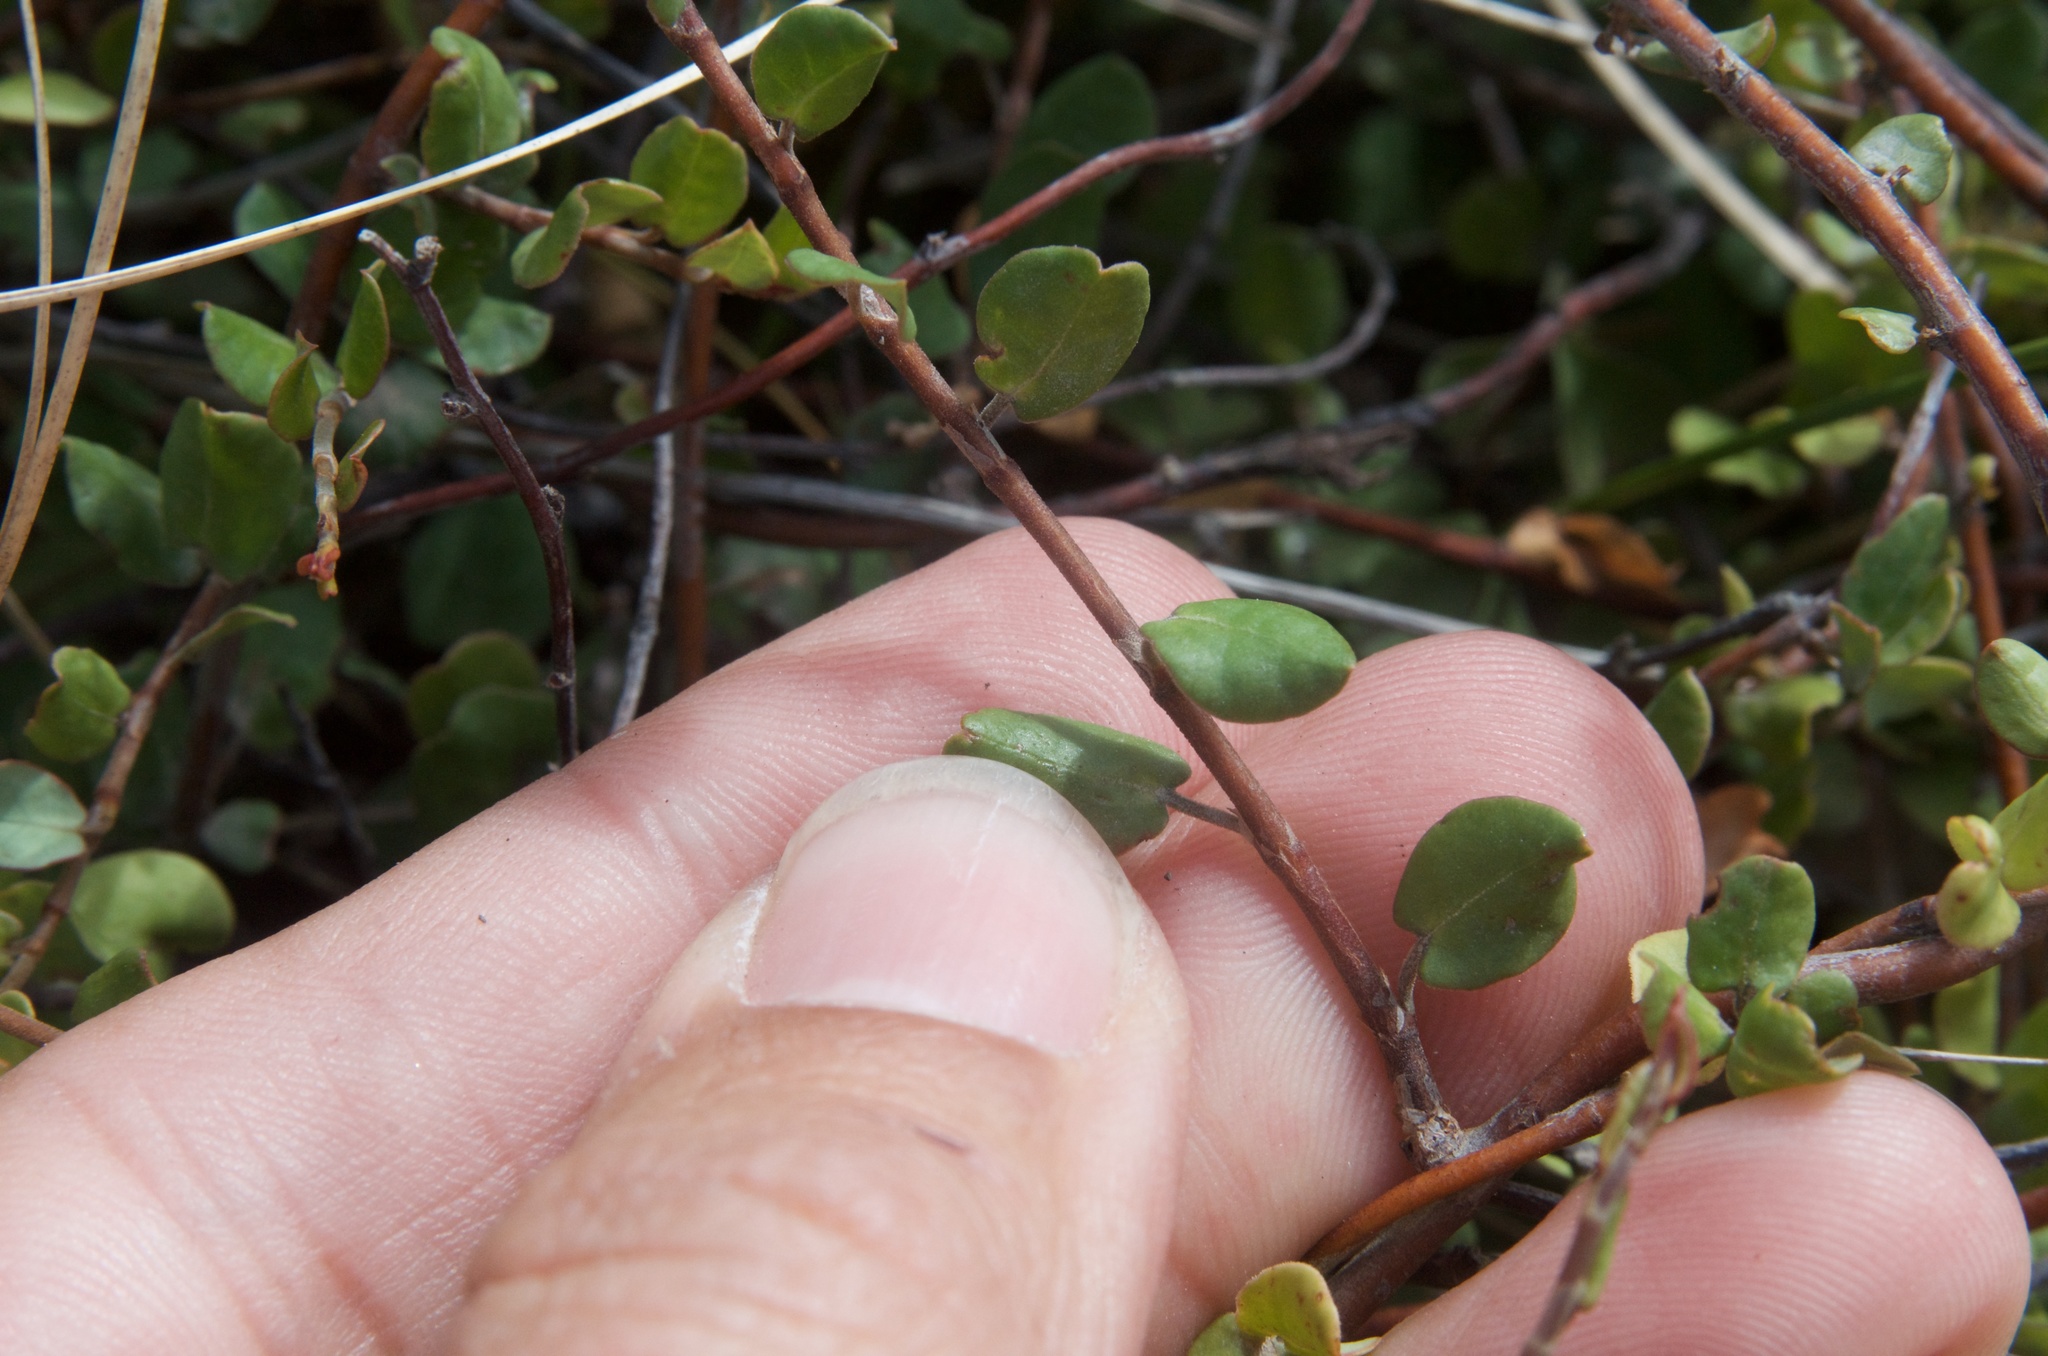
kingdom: Plantae
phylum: Tracheophyta
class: Magnoliopsida
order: Caryophyllales
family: Polygonaceae
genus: Muehlenbeckia
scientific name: Muehlenbeckia complexa
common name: Wireplant
